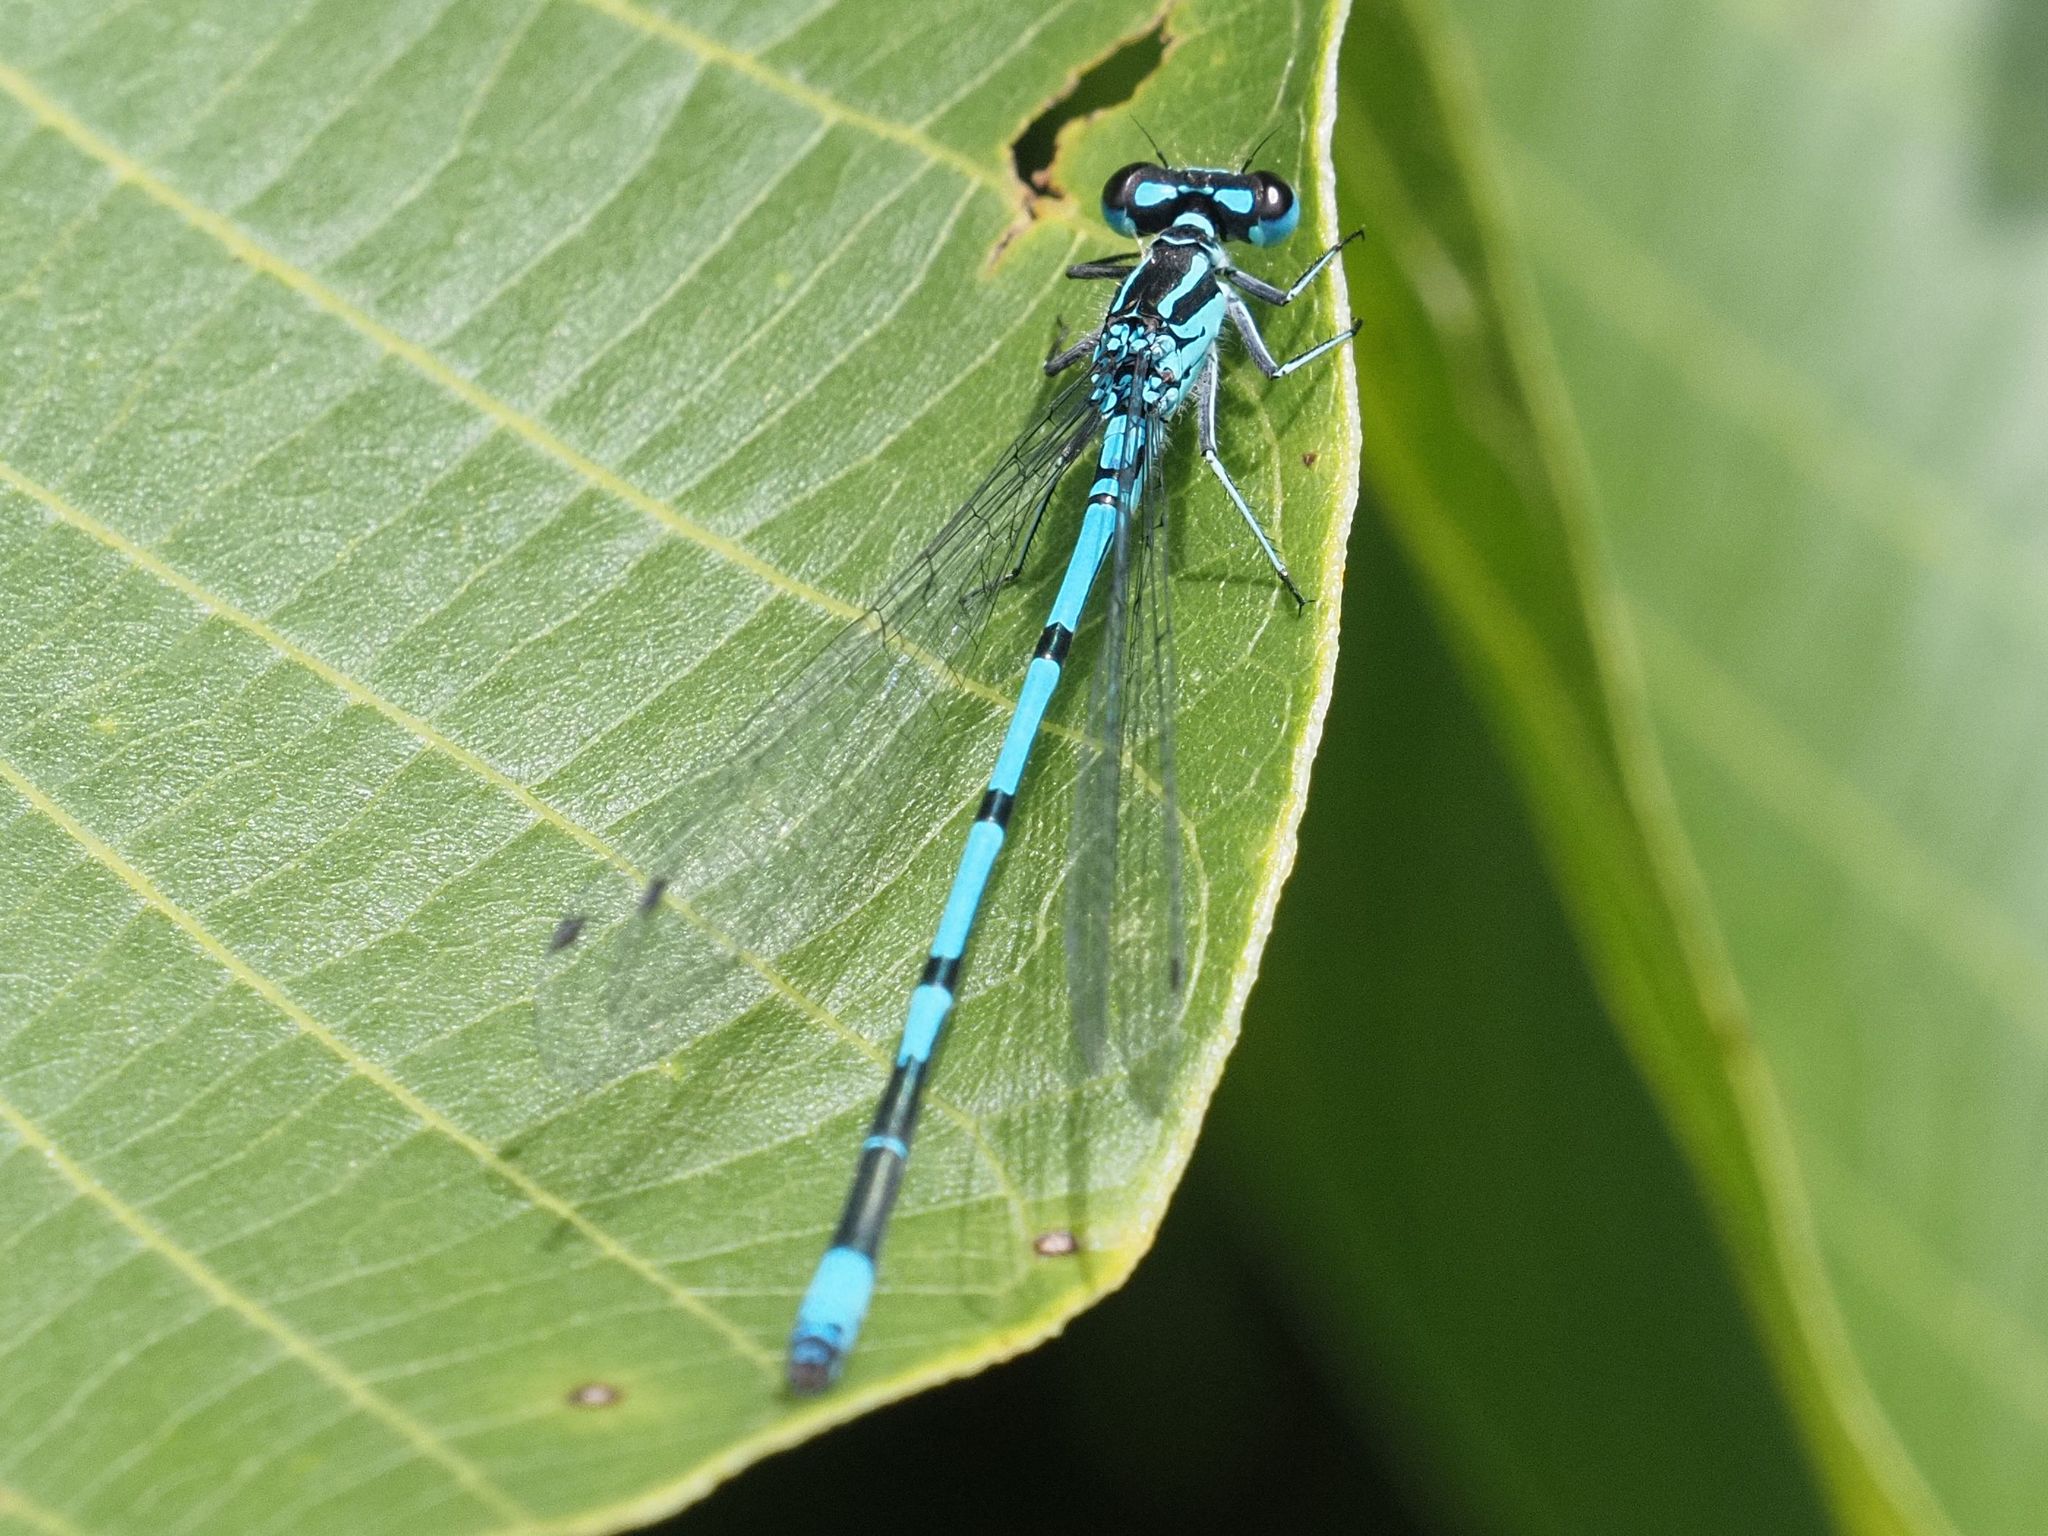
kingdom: Animalia
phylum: Arthropoda
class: Insecta
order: Odonata
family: Coenagrionidae
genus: Coenagrion
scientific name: Coenagrion puella
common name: Azure damselfly
